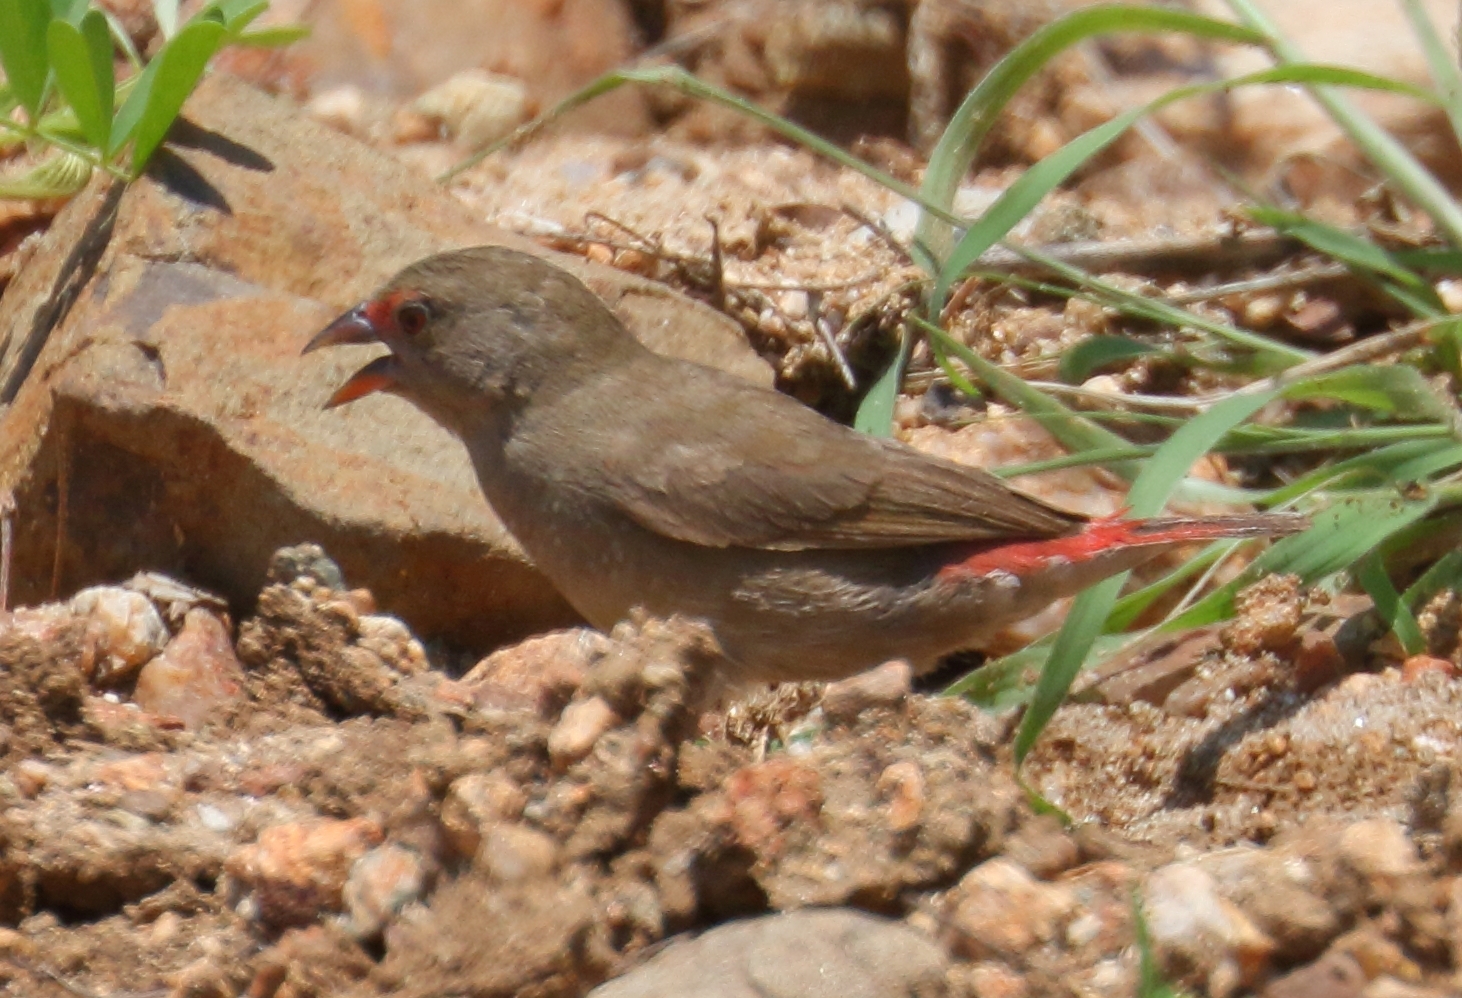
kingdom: Animalia
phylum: Chordata
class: Aves
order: Passeriformes
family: Estrildidae
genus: Lagonosticta
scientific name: Lagonosticta senegala
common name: Red-billed firefinch
